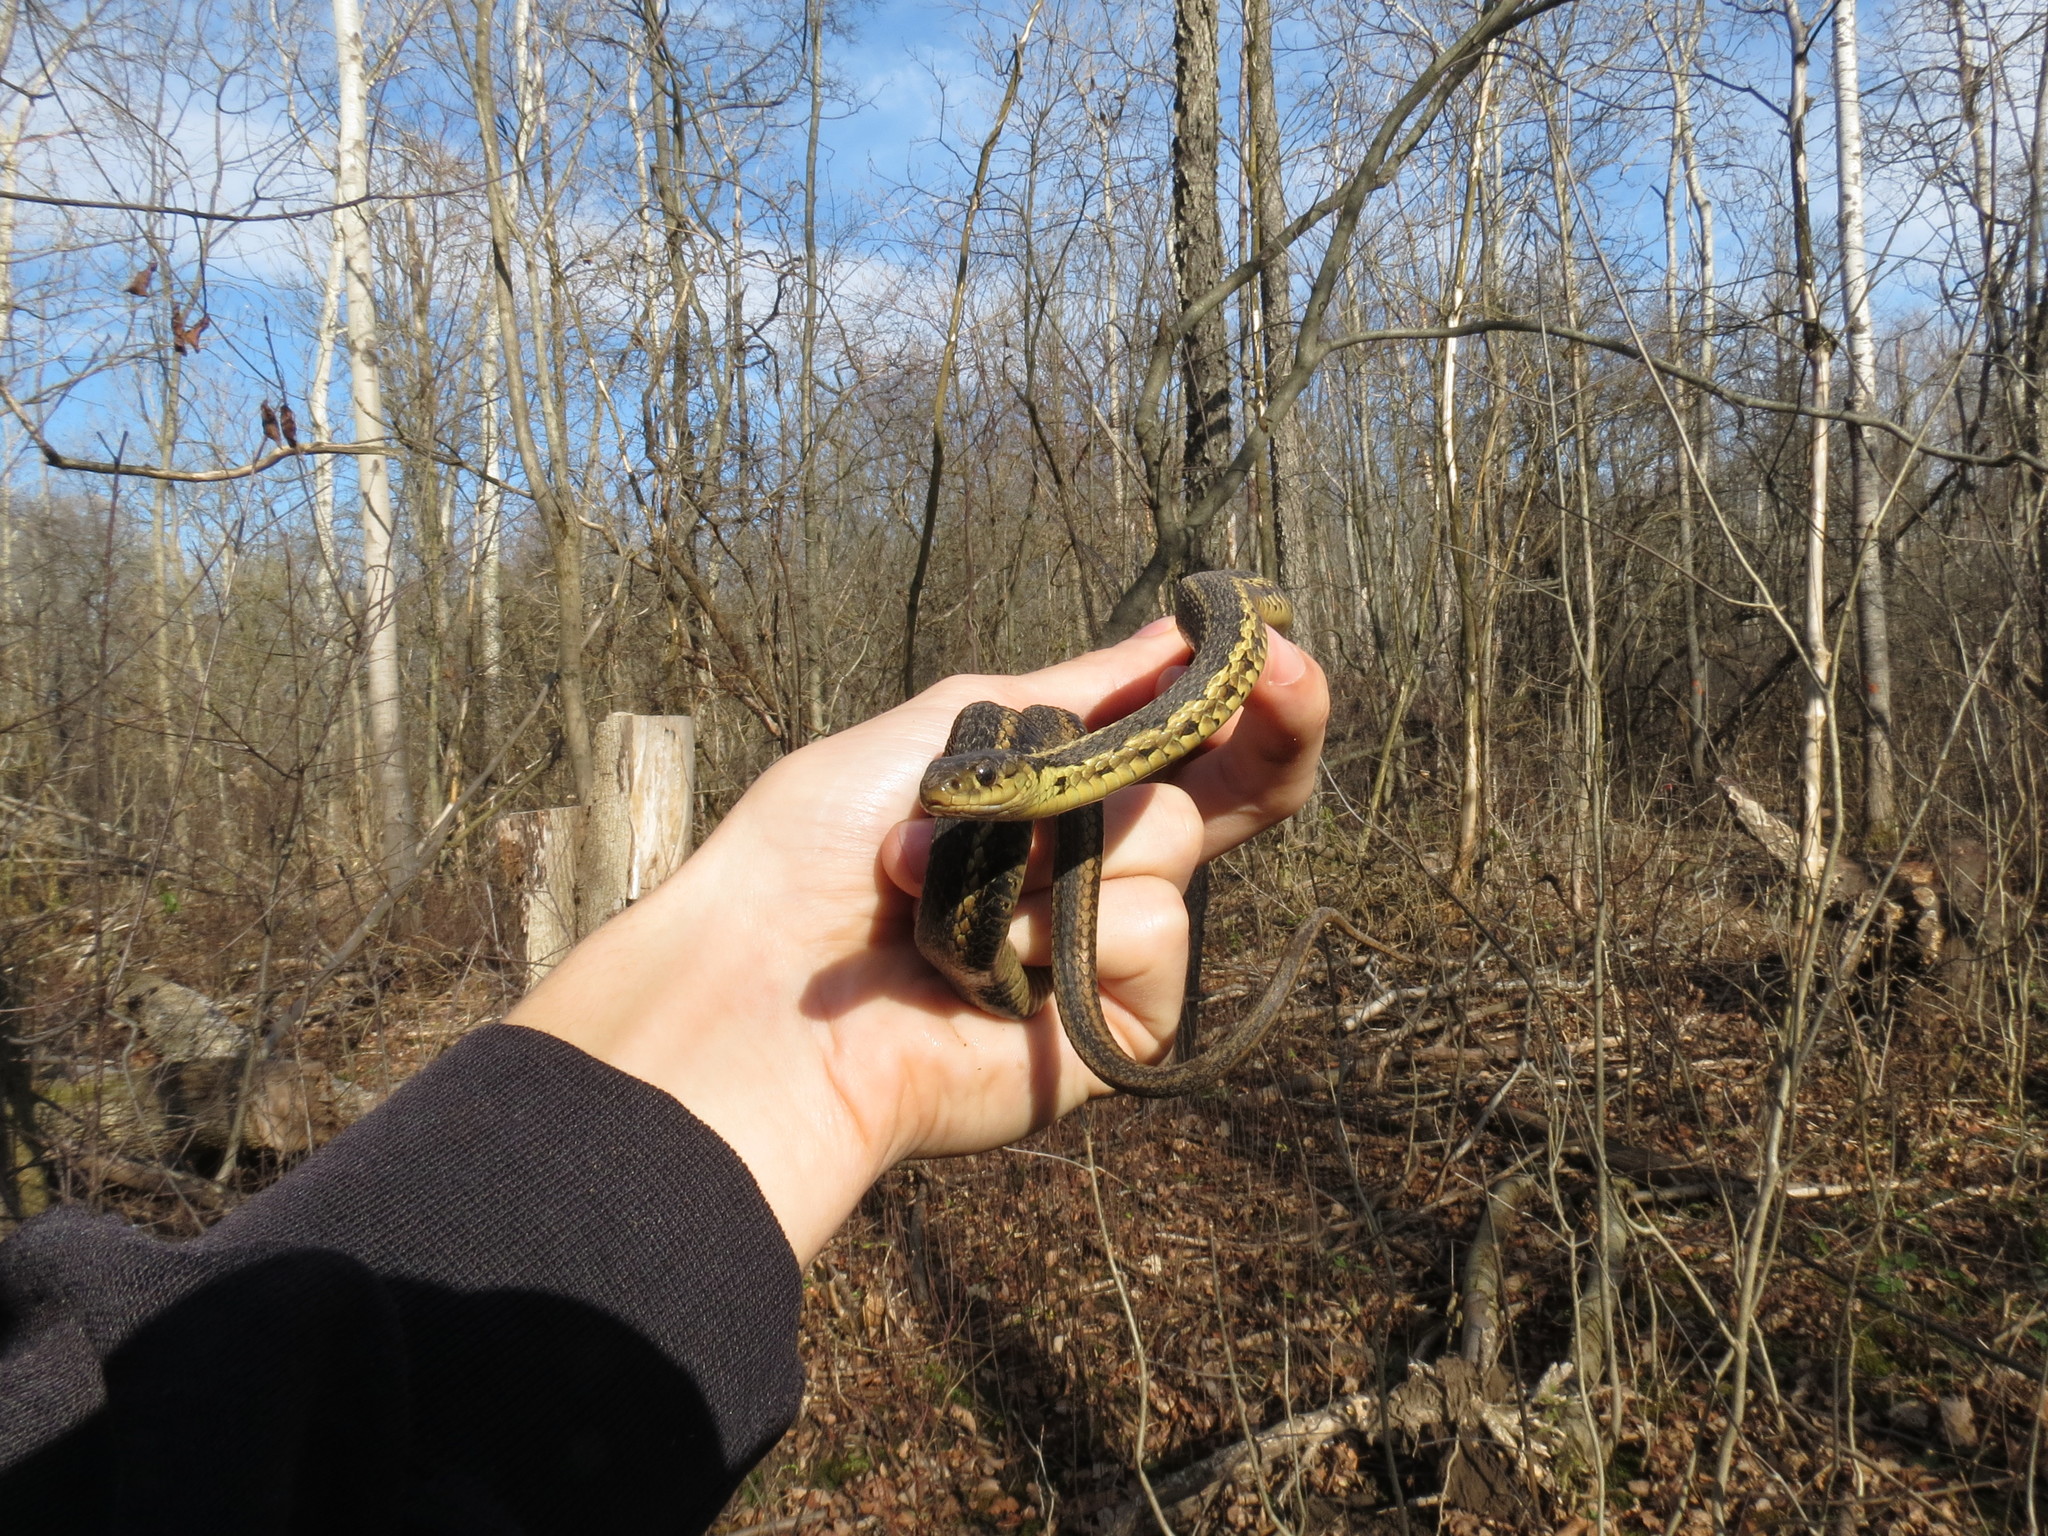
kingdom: Animalia
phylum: Chordata
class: Squamata
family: Colubridae
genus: Thamnophis
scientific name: Thamnophis sirtalis
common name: Common garter snake
